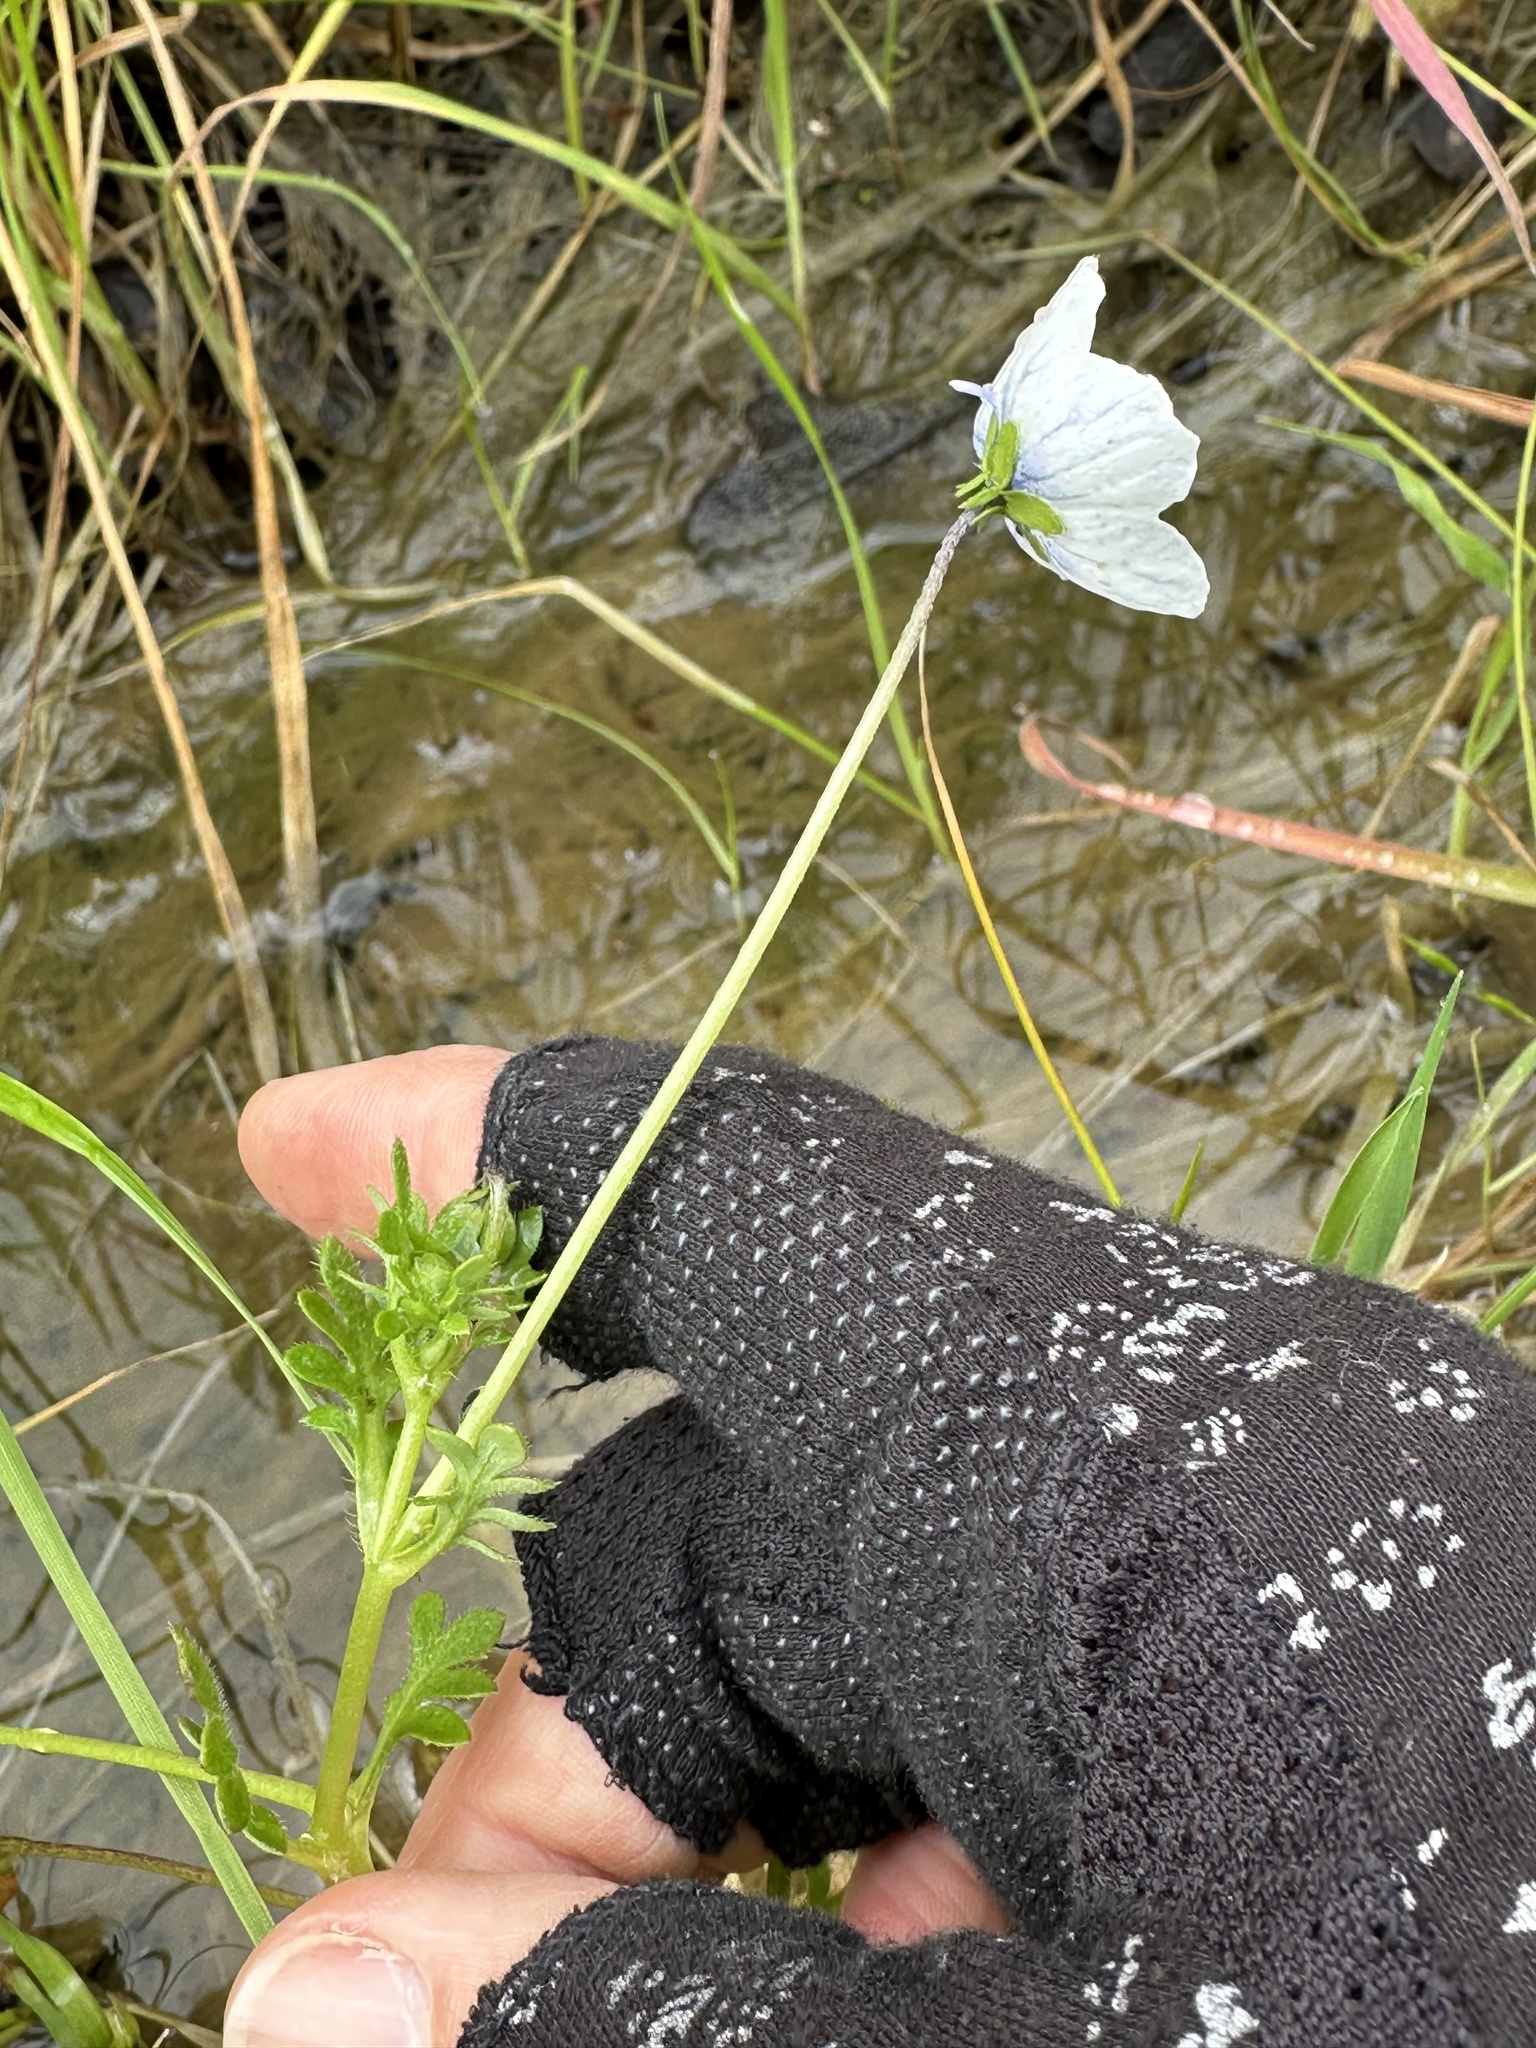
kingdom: Plantae
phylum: Tracheophyta
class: Magnoliopsida
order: Boraginales
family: Hydrophyllaceae
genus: Nemophila
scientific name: Nemophila menziesii
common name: Baby's-blue-eyes
